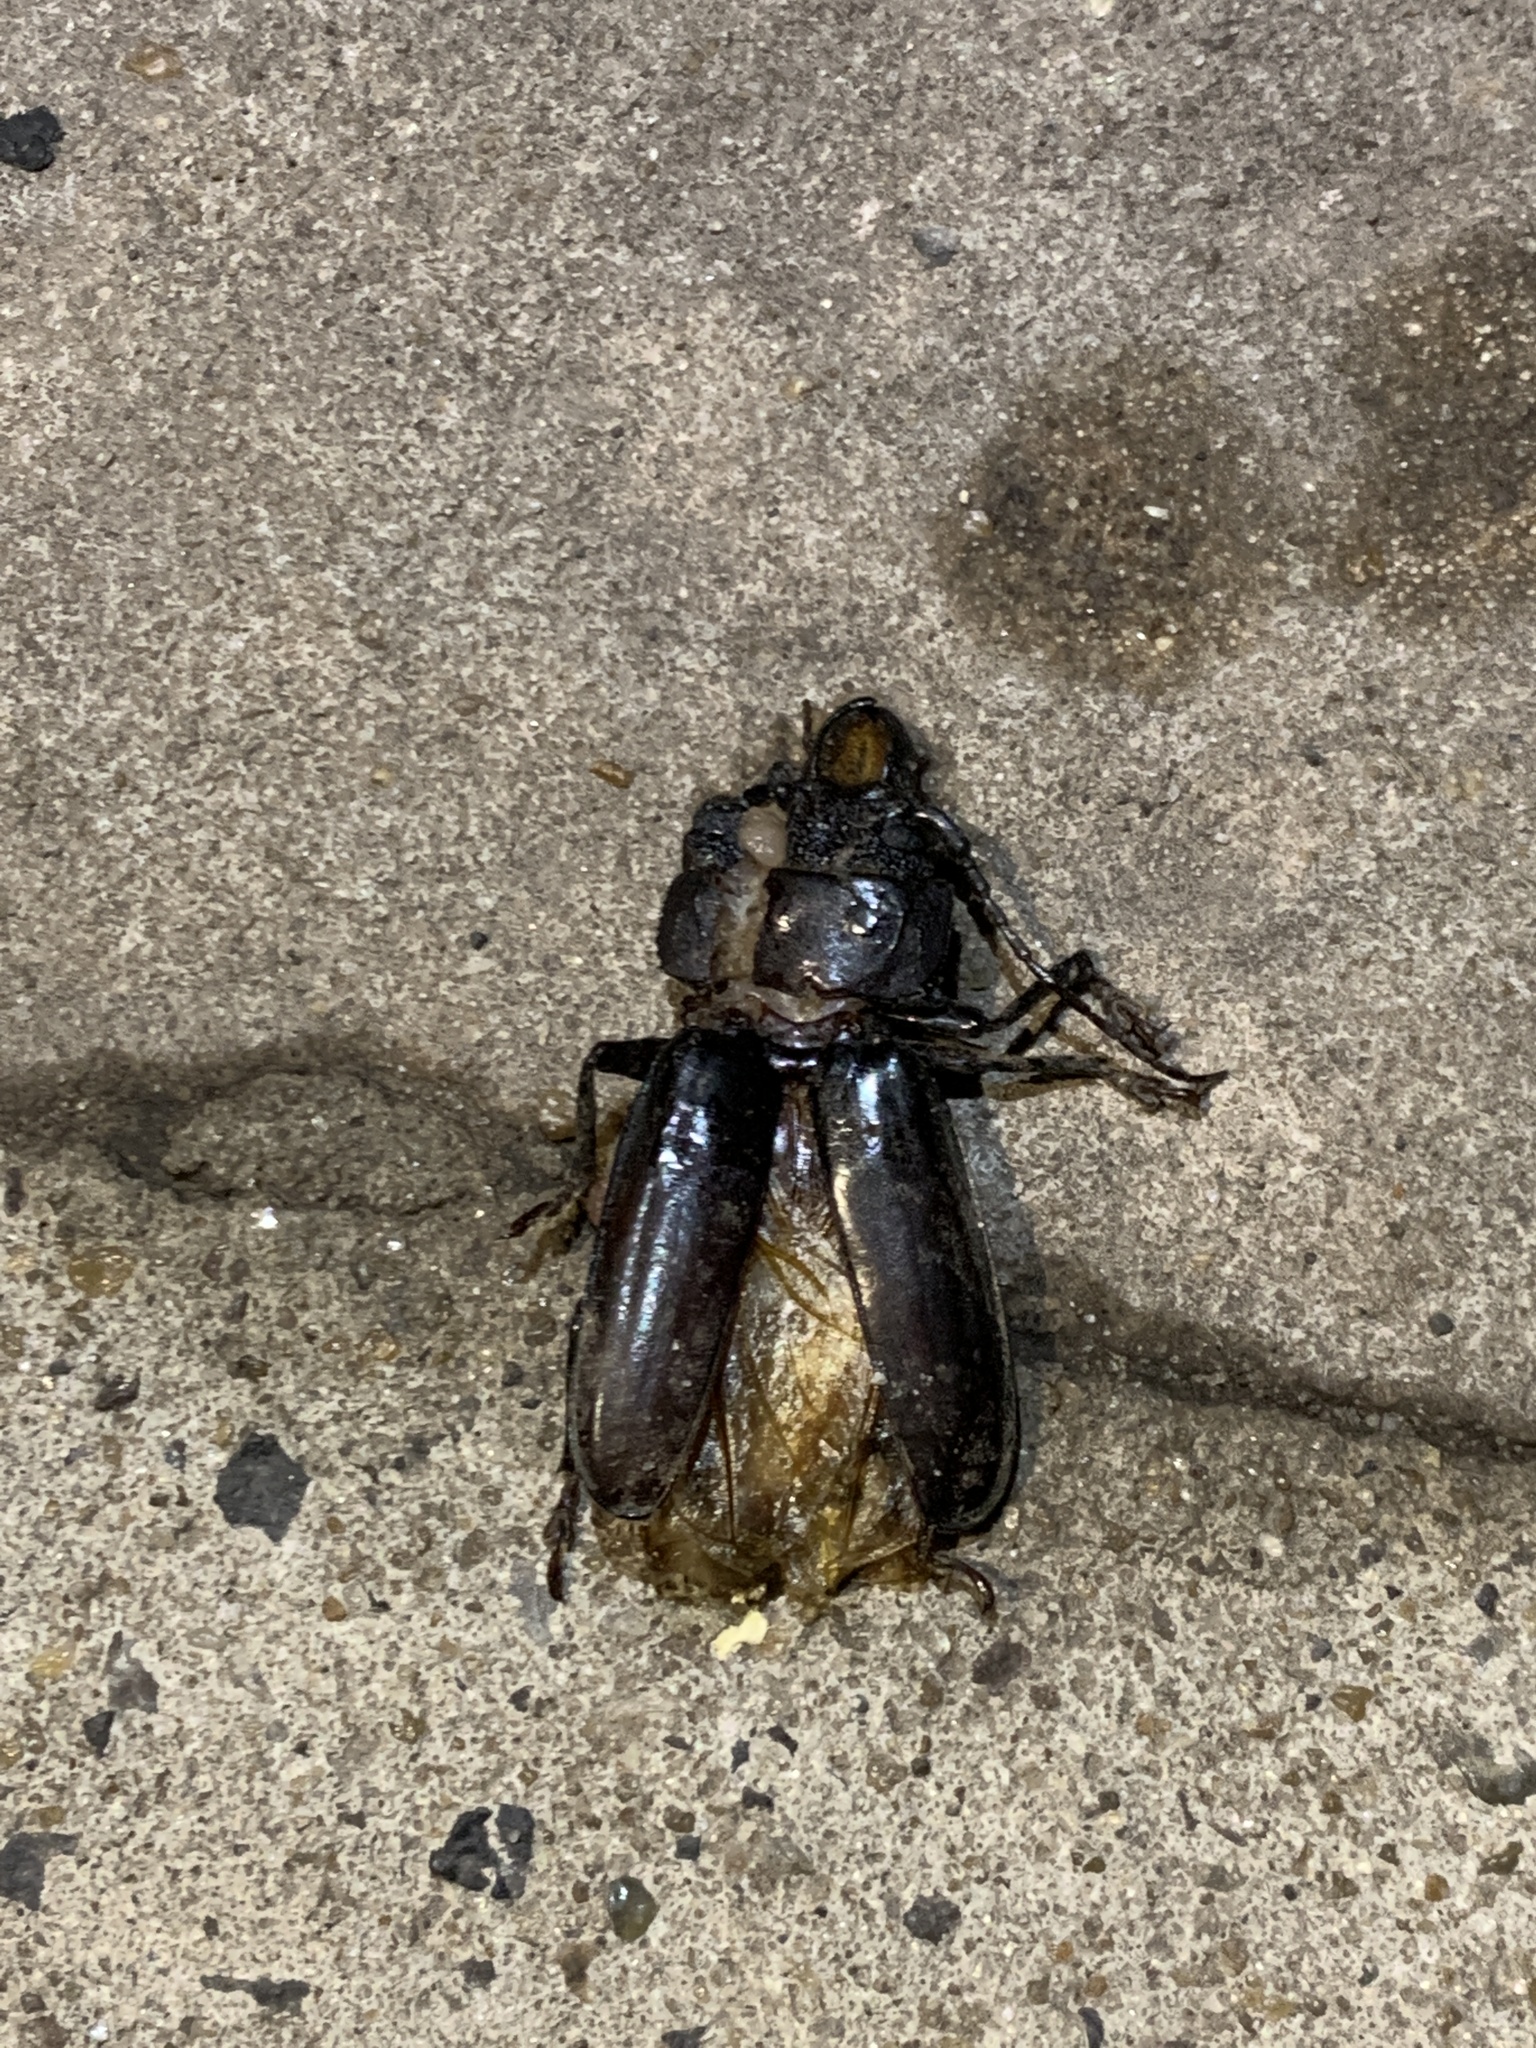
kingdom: Animalia
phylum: Arthropoda
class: Insecta
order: Coleoptera
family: Cerambycidae
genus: Mallodon
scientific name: Mallodon dasystomum
